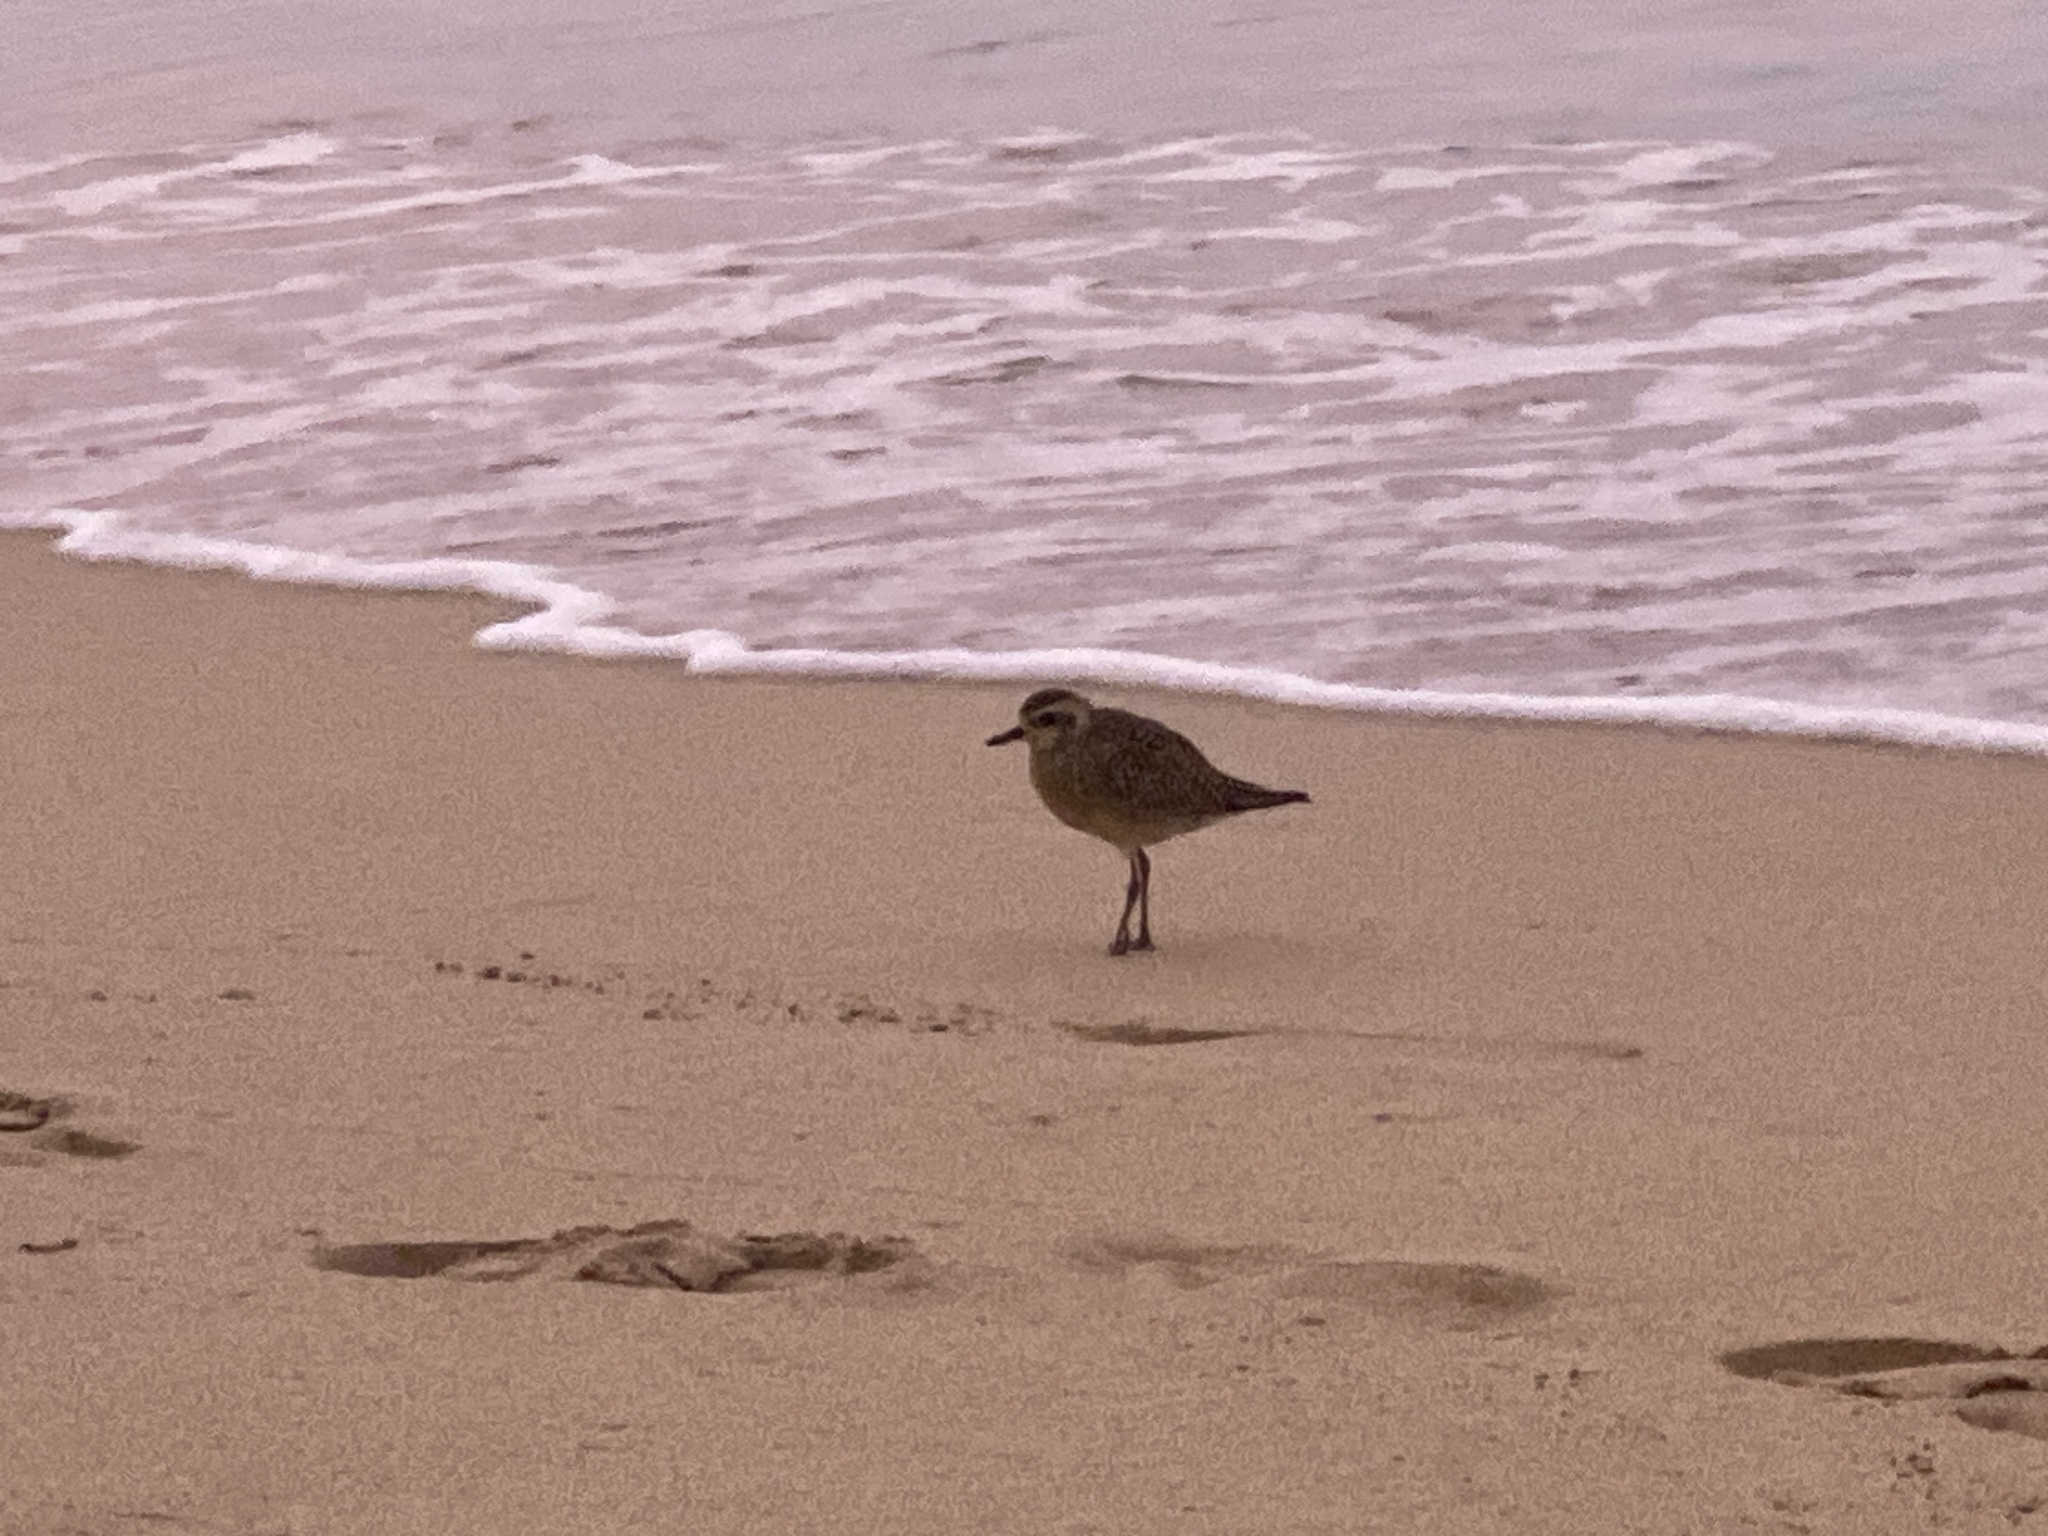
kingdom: Animalia
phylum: Chordata
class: Aves
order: Charadriiformes
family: Charadriidae
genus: Pluvialis
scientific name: Pluvialis fulva
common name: Pacific golden plover
